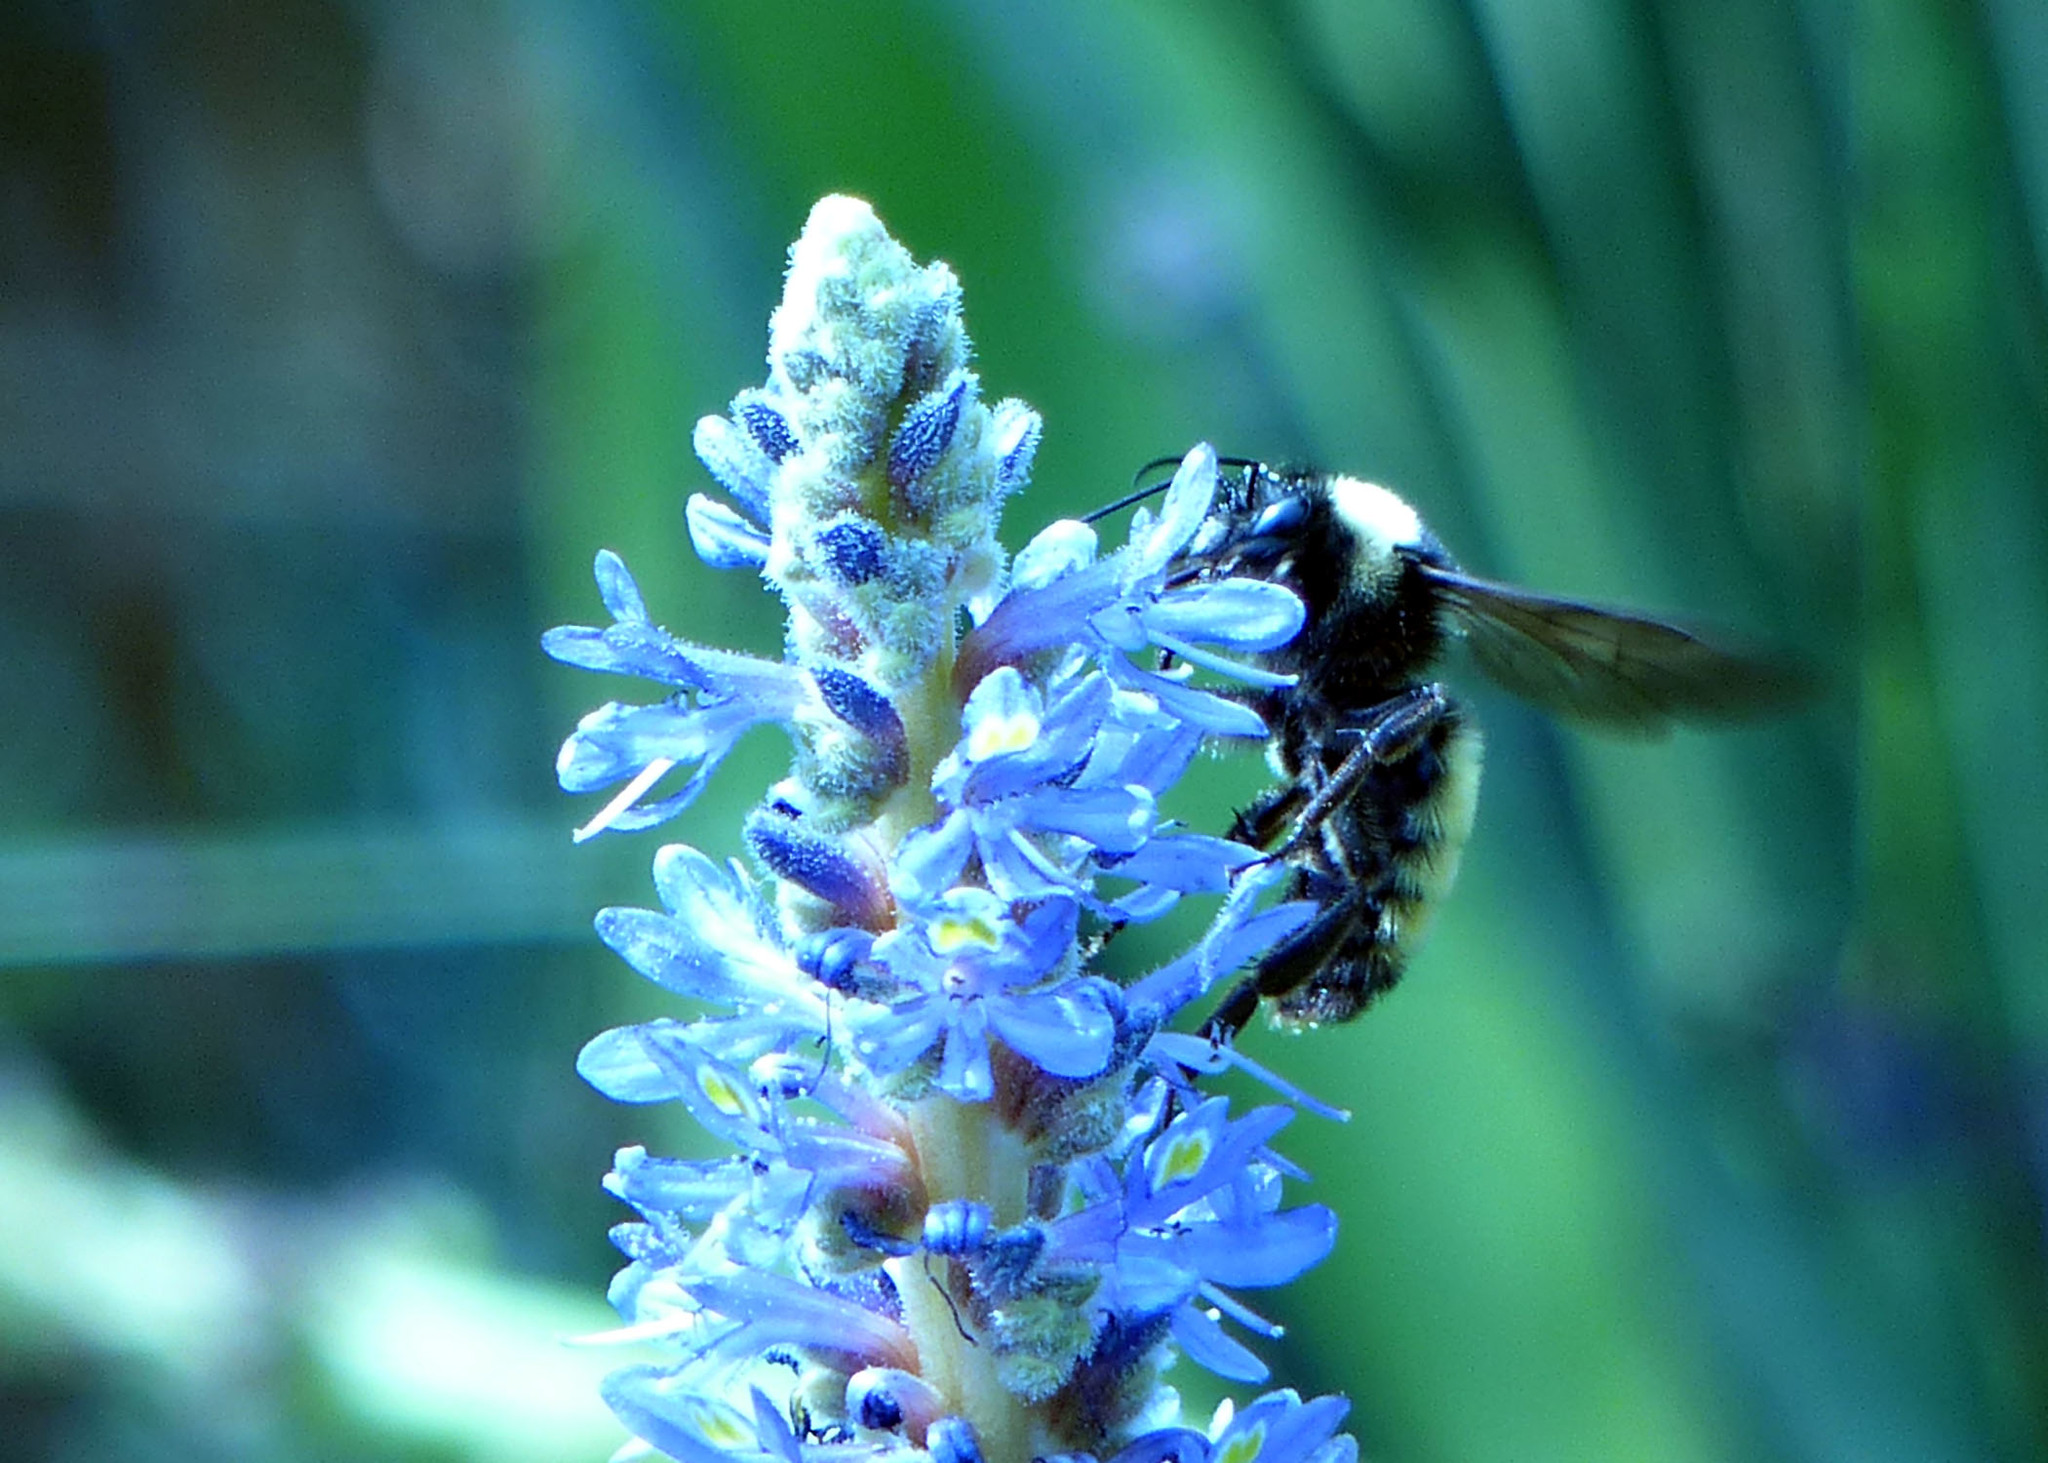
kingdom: Animalia
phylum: Arthropoda
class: Insecta
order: Hymenoptera
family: Apidae
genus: Bombus
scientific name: Bombus pensylvanicus
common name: Bumble bee
